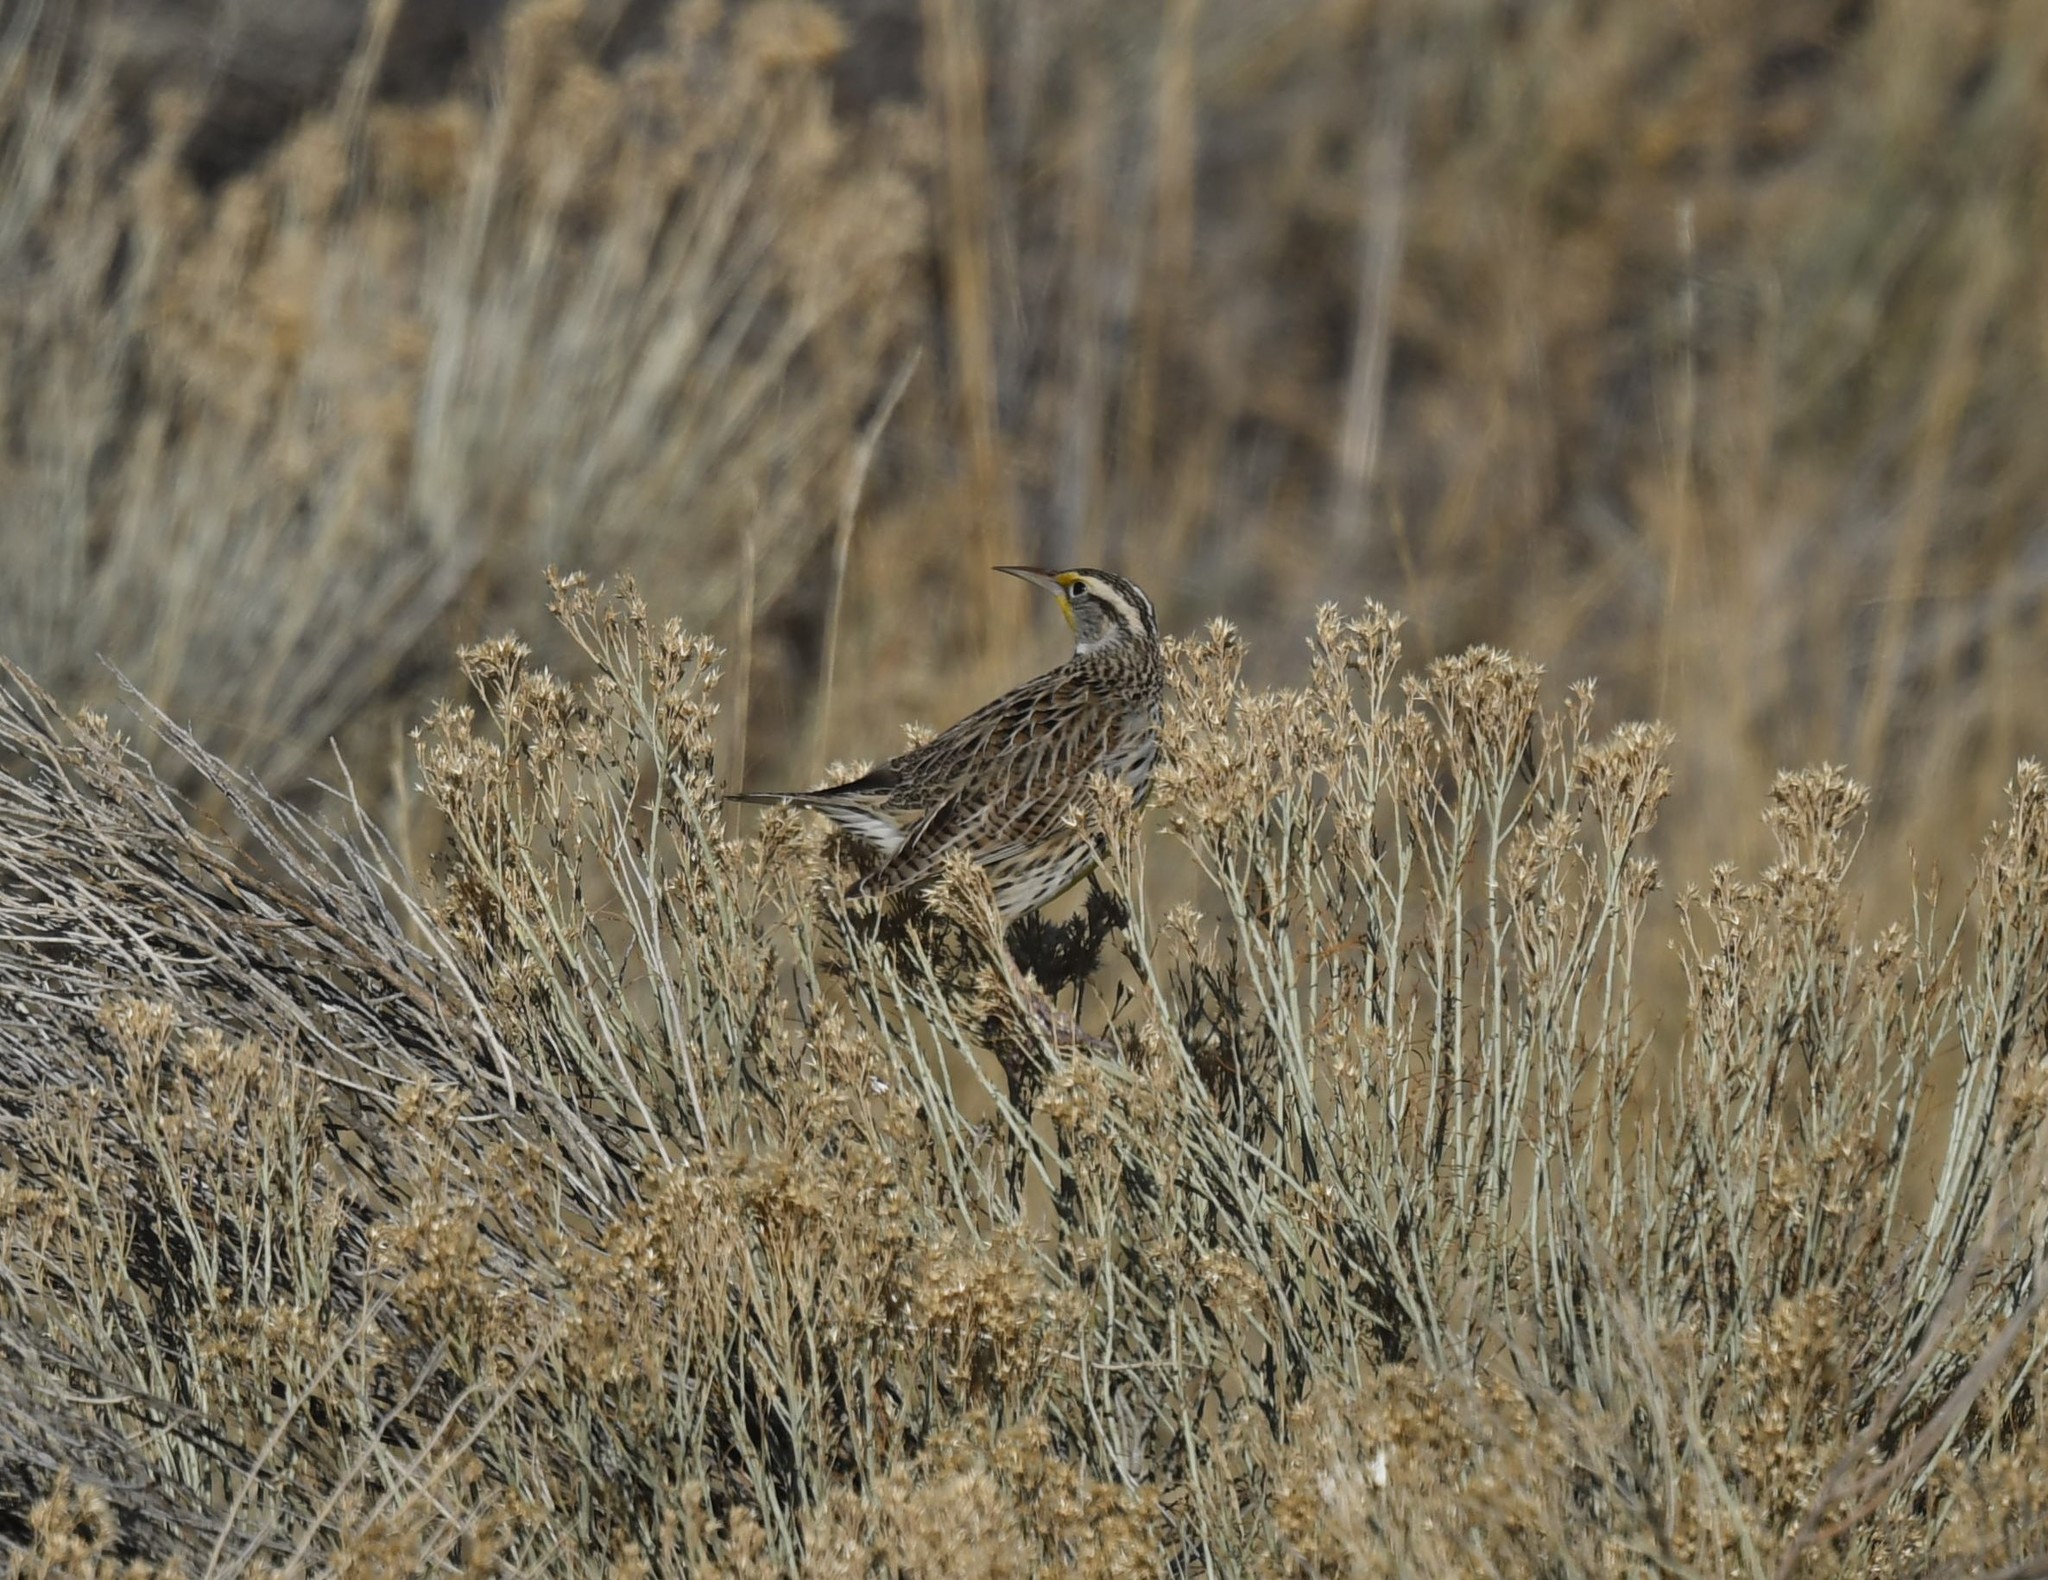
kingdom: Animalia
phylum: Chordata
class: Aves
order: Passeriformes
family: Icteridae
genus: Sturnella
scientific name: Sturnella neglecta
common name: Western meadowlark
